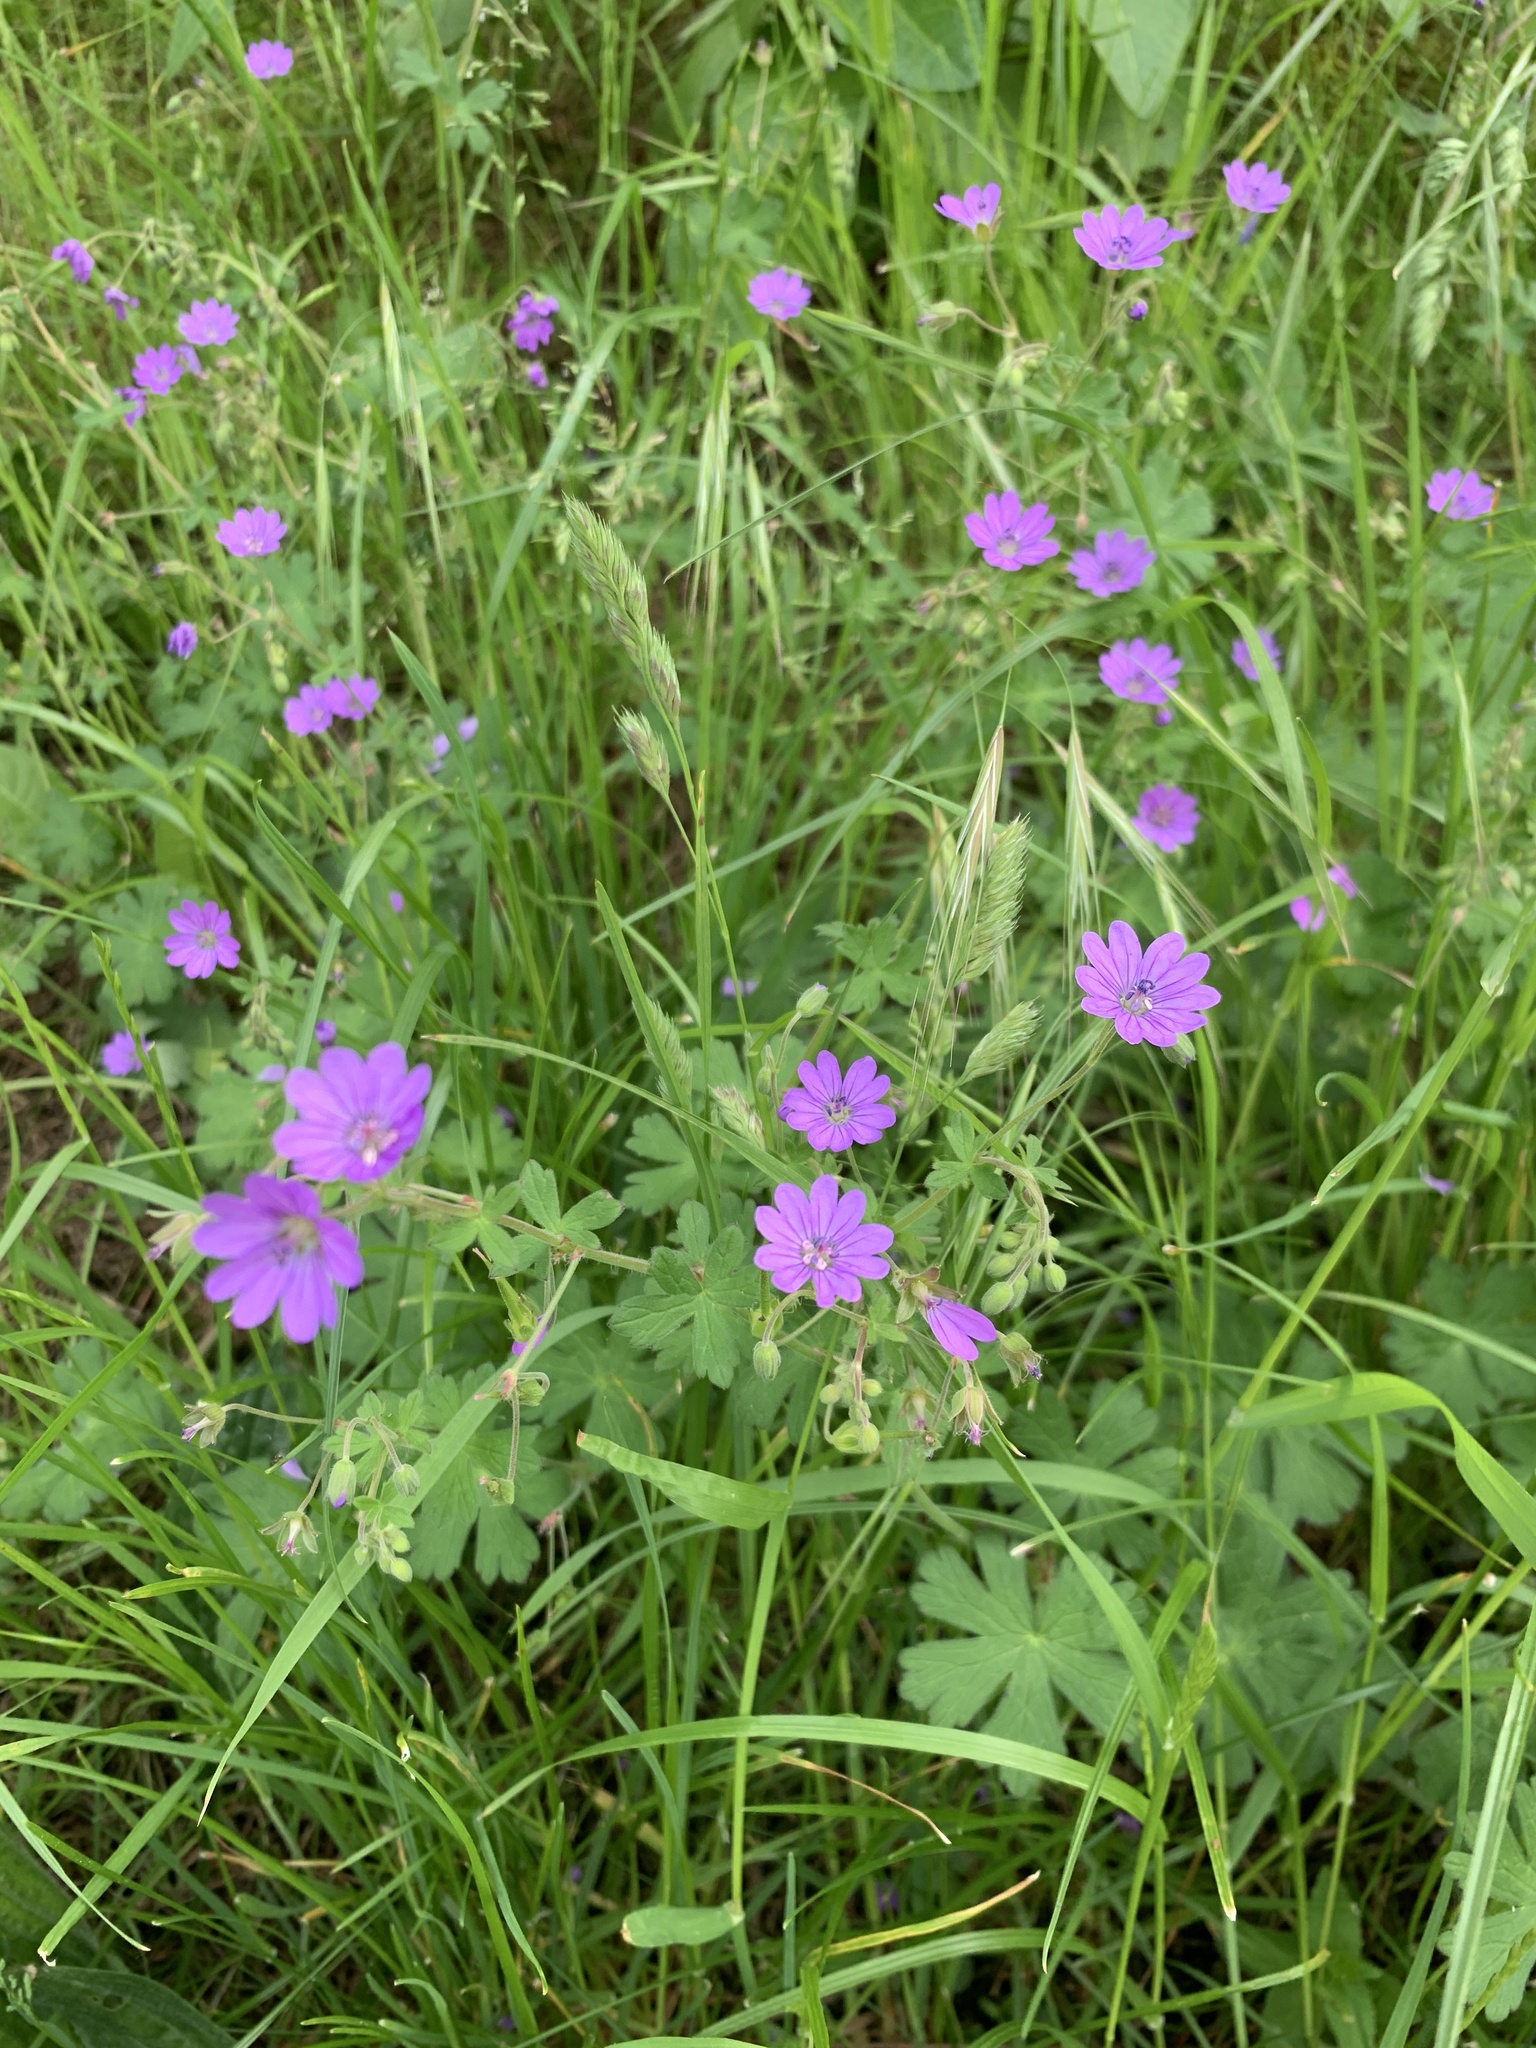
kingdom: Plantae
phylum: Tracheophyta
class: Magnoliopsida
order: Geraniales
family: Geraniaceae
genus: Geranium
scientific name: Geranium pyrenaicum
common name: Hedgerow crane's-bill
